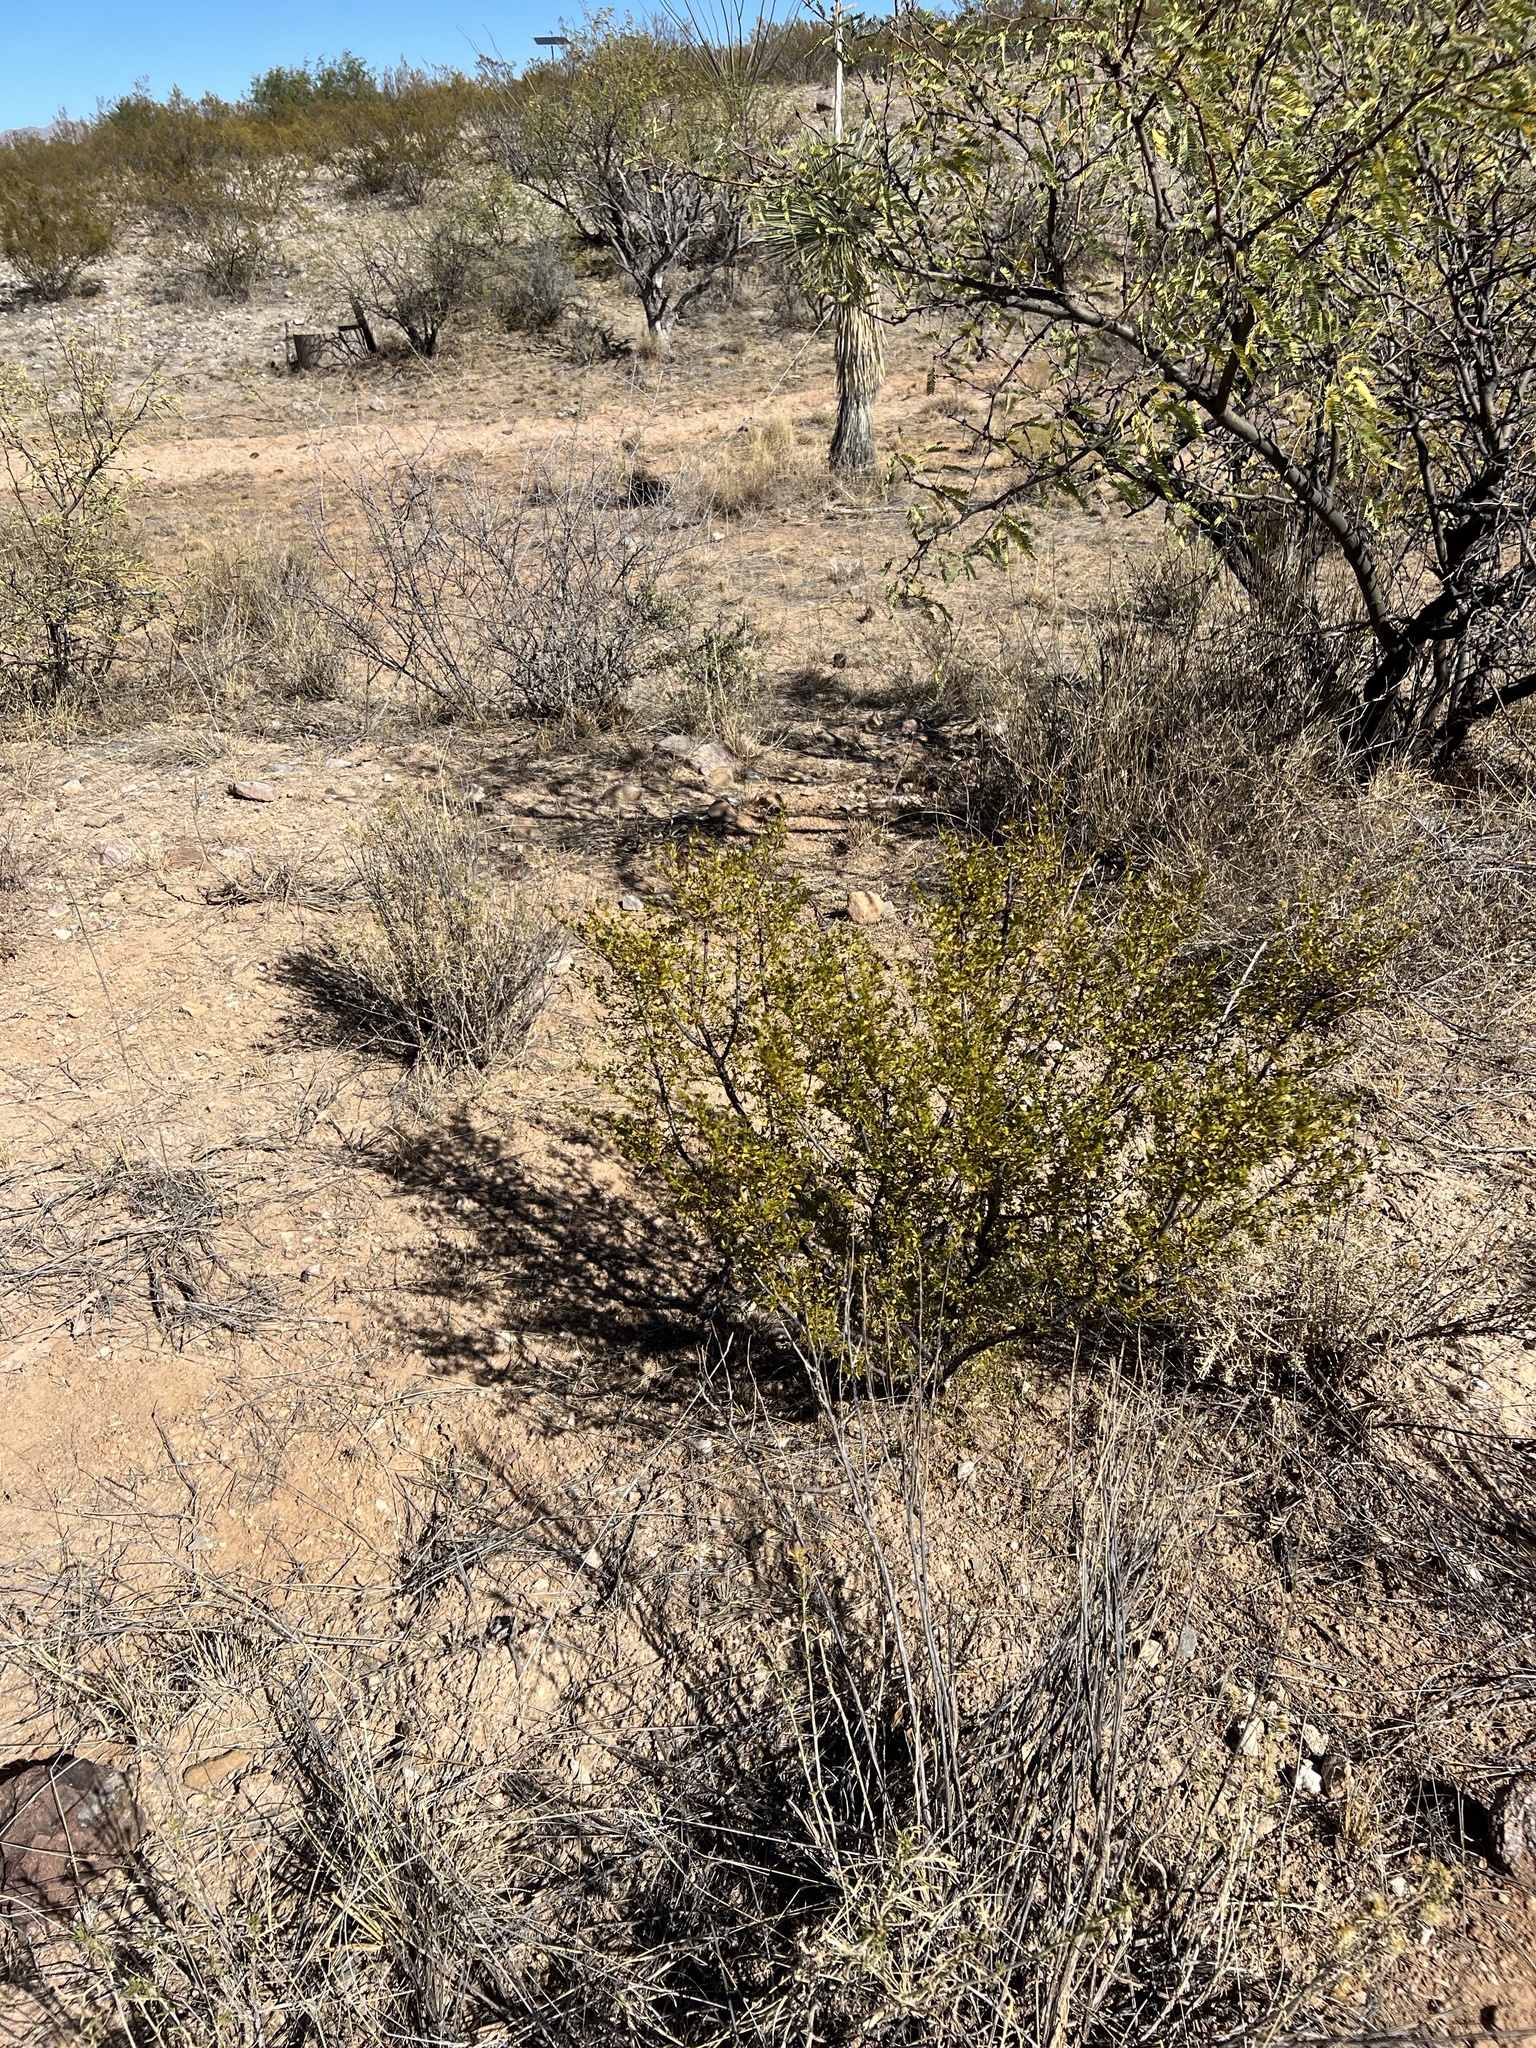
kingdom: Plantae
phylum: Tracheophyta
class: Magnoliopsida
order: Zygophyllales
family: Zygophyllaceae
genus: Larrea
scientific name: Larrea tridentata
